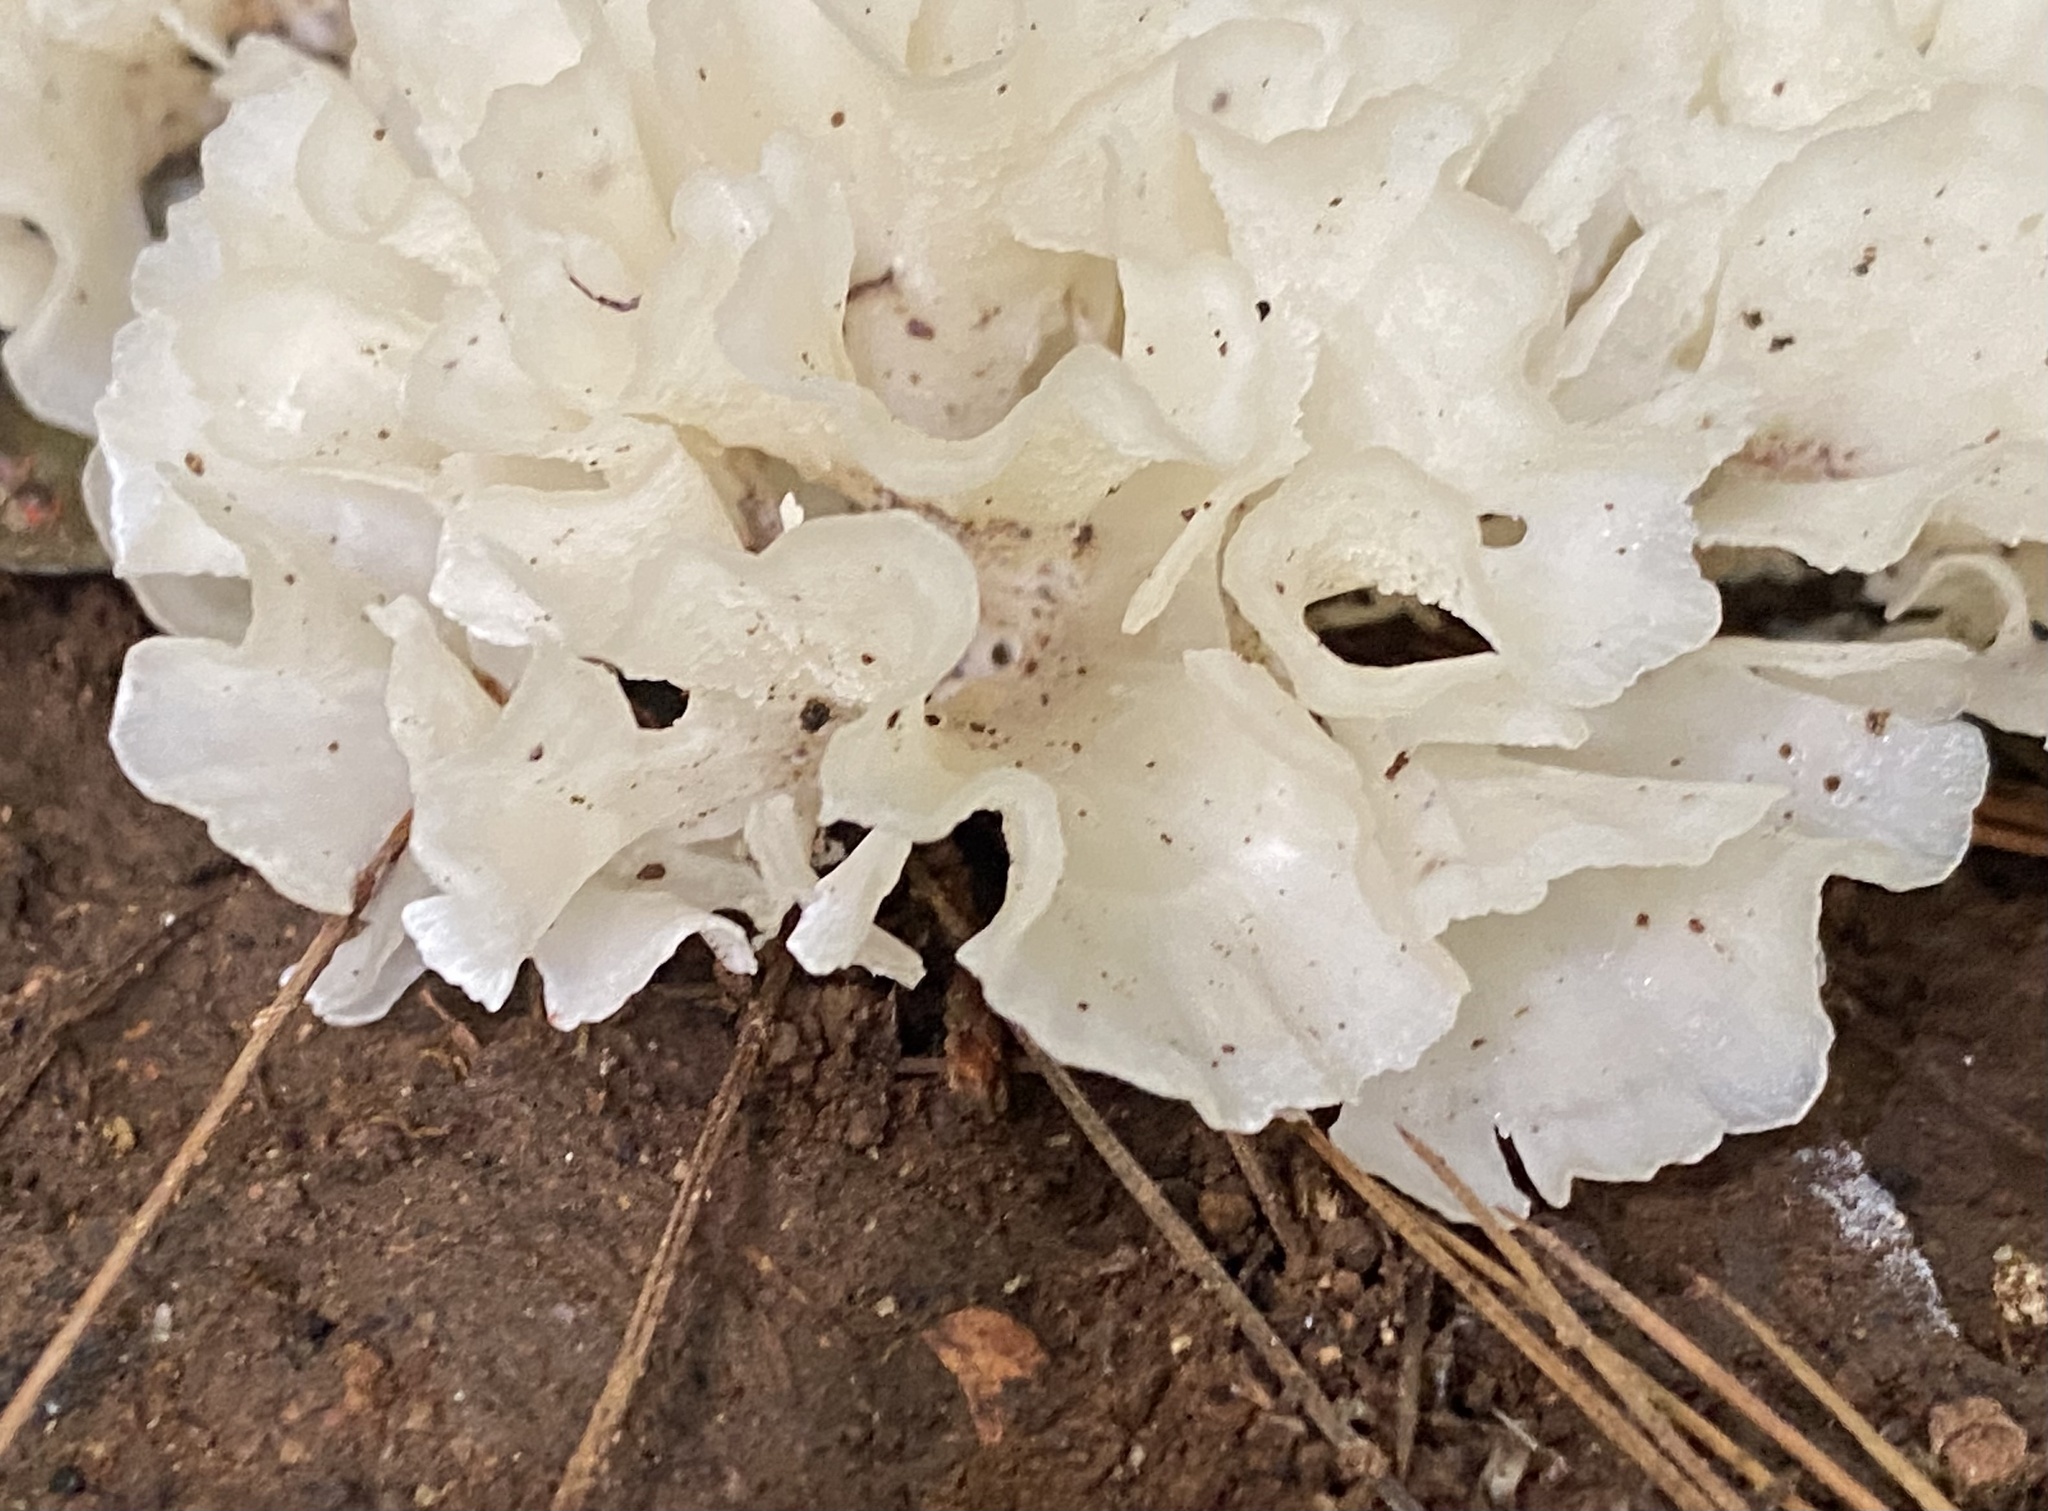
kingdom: Fungi
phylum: Basidiomycota
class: Agaricomycetes
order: Polyporales
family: Irpicaceae
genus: Irpex
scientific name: Irpex rosettiformis
